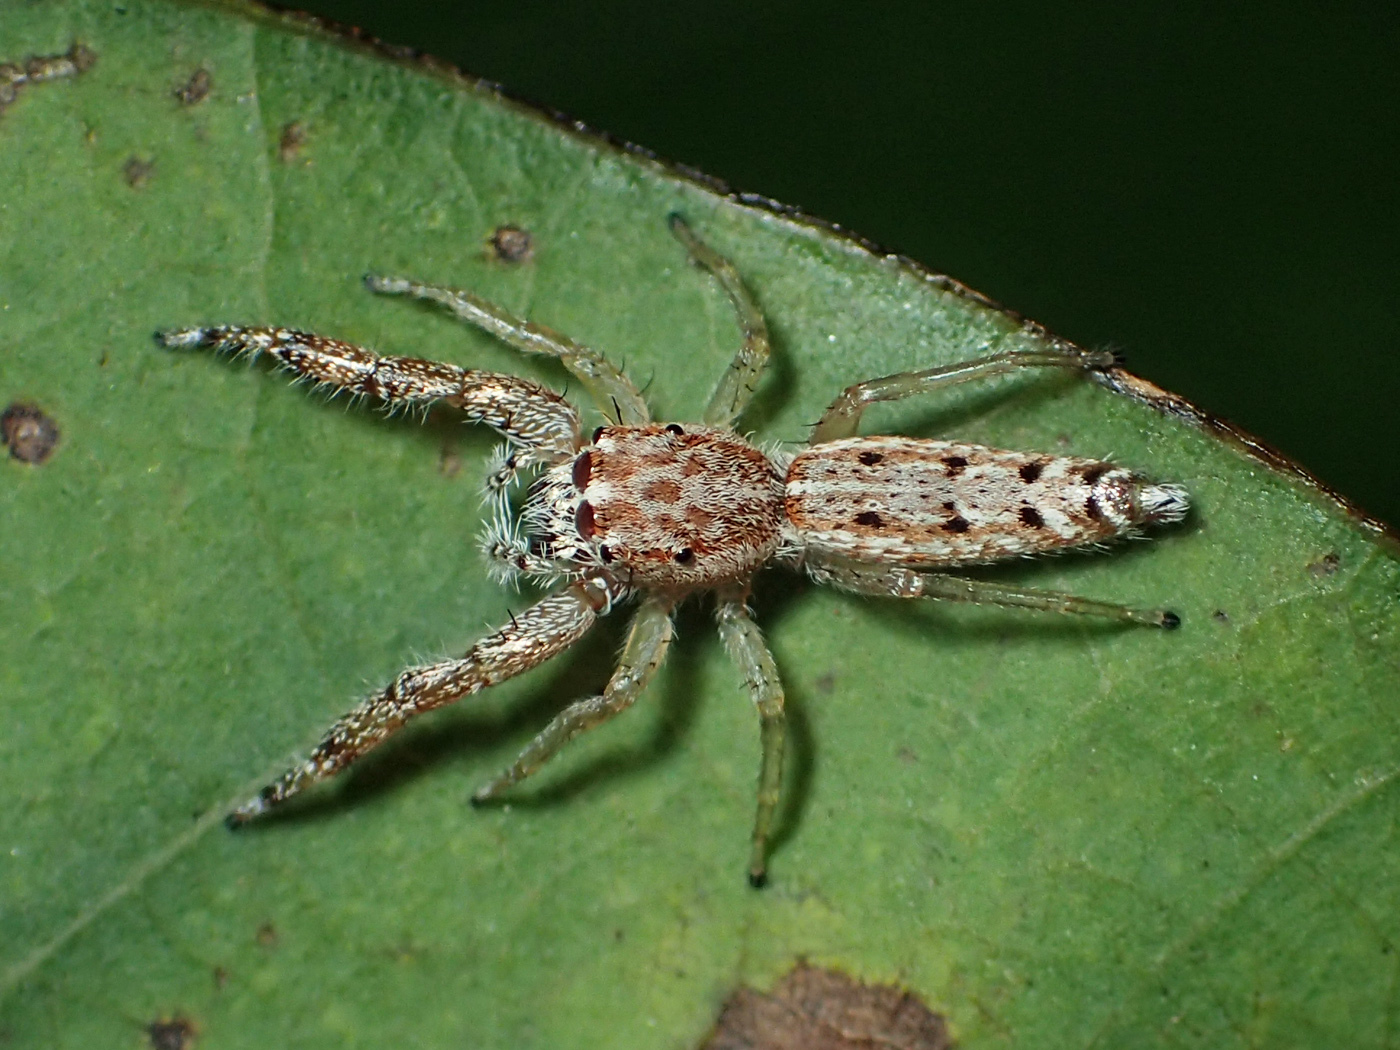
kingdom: Animalia
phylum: Arthropoda
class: Arachnida
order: Araneae
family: Salticidae
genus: Hentzia
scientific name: Hentzia chekika
